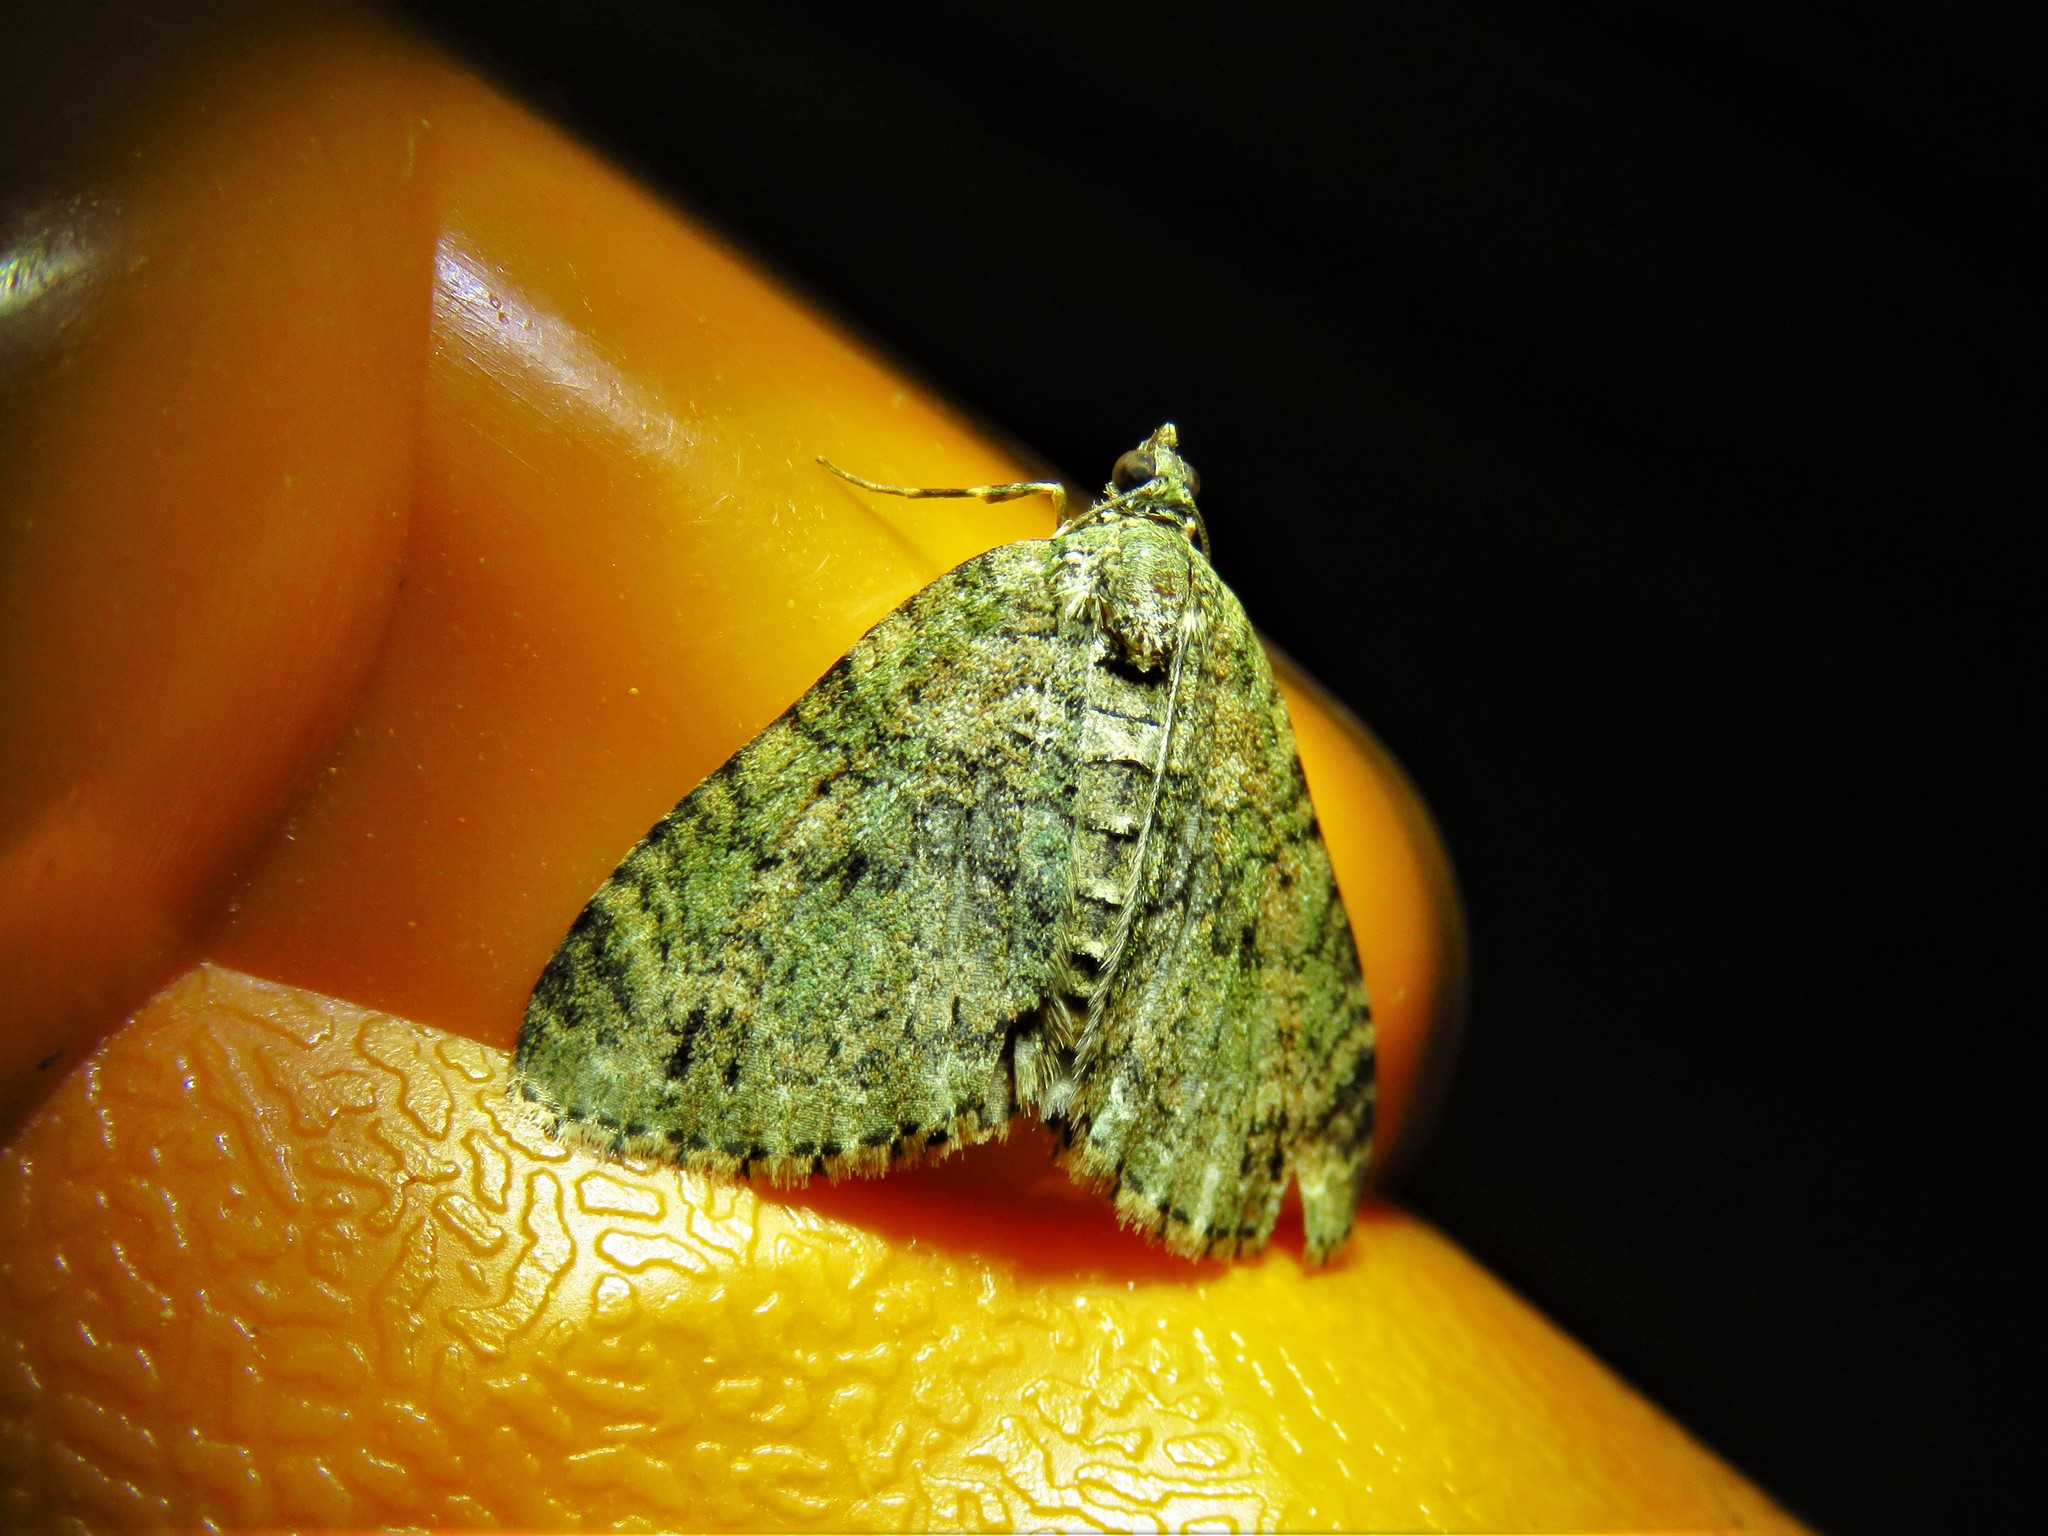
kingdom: Animalia
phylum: Arthropoda
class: Insecta
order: Lepidoptera
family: Geometridae
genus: Hammaptera
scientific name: Hammaptera parinotata
